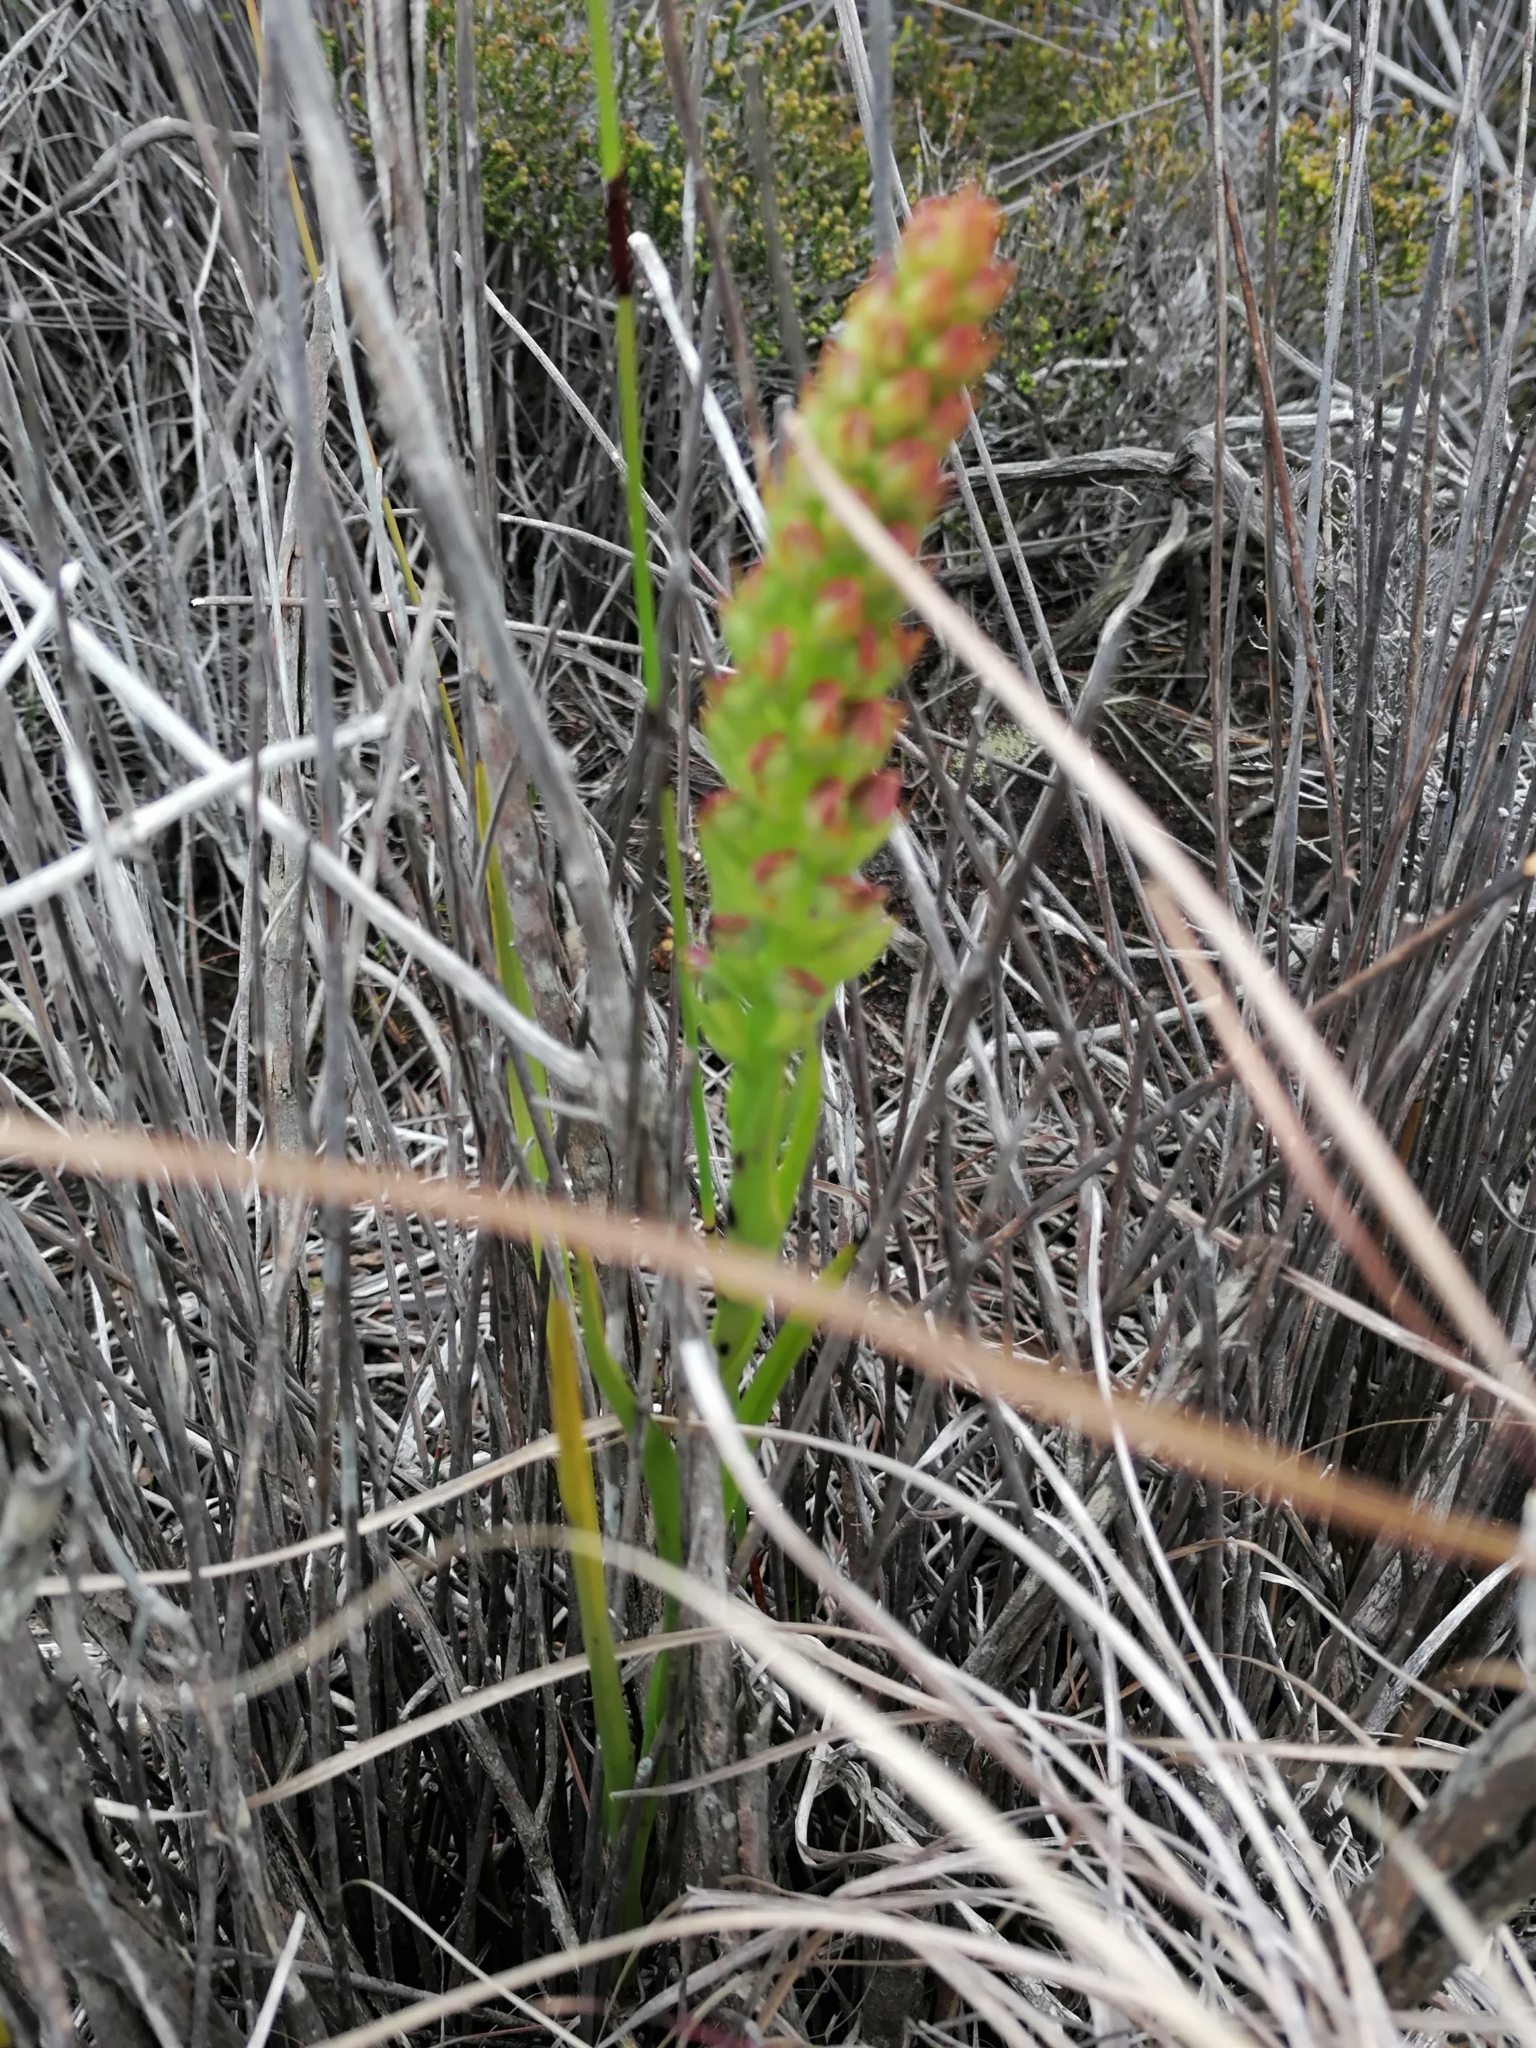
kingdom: Plantae
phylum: Tracheophyta
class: Liliopsida
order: Asparagales
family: Orchidaceae
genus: Disa
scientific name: Disa bracteata
